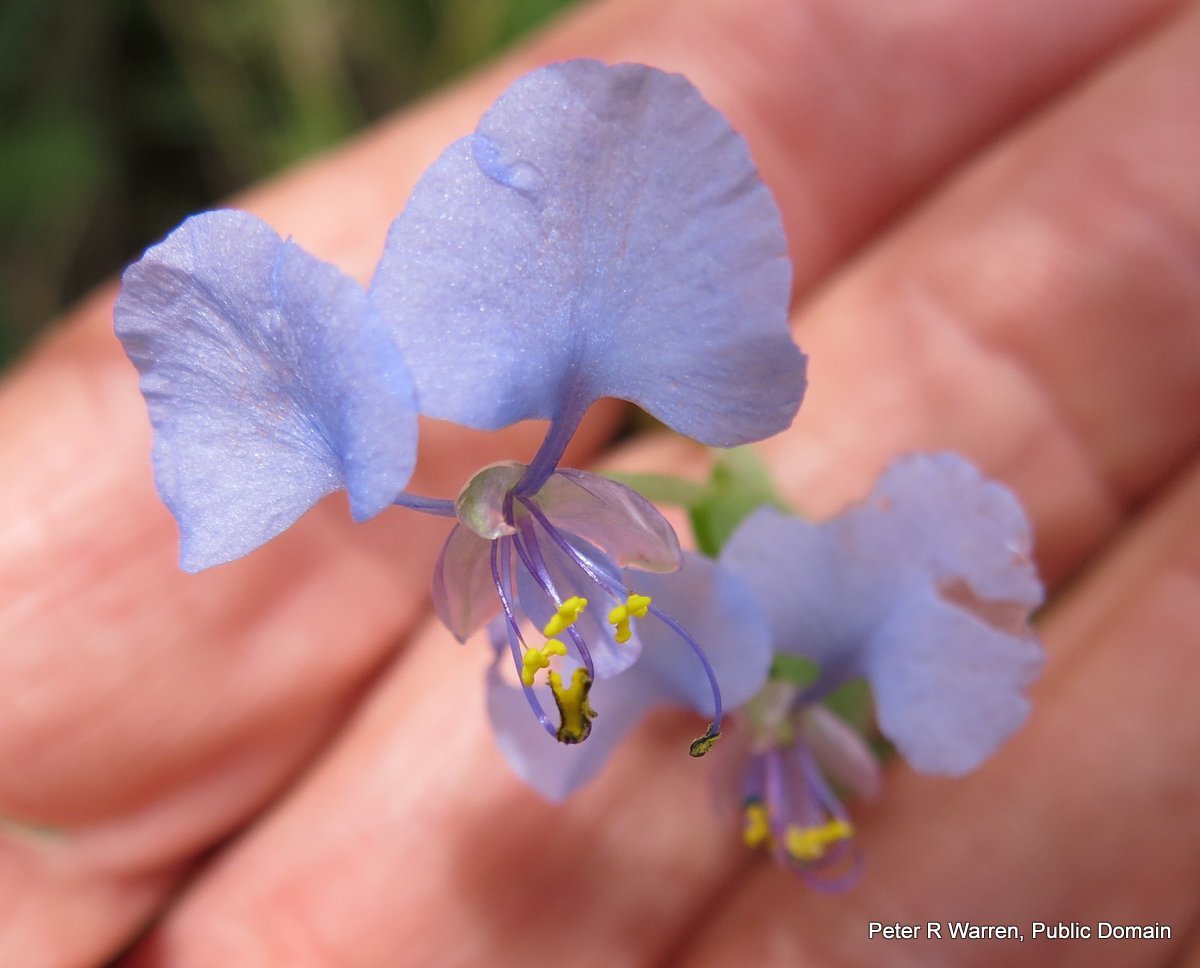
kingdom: Plantae
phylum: Tracheophyta
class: Liliopsida
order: Commelinales
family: Commelinaceae
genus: Commelina
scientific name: Commelina eckloniana
